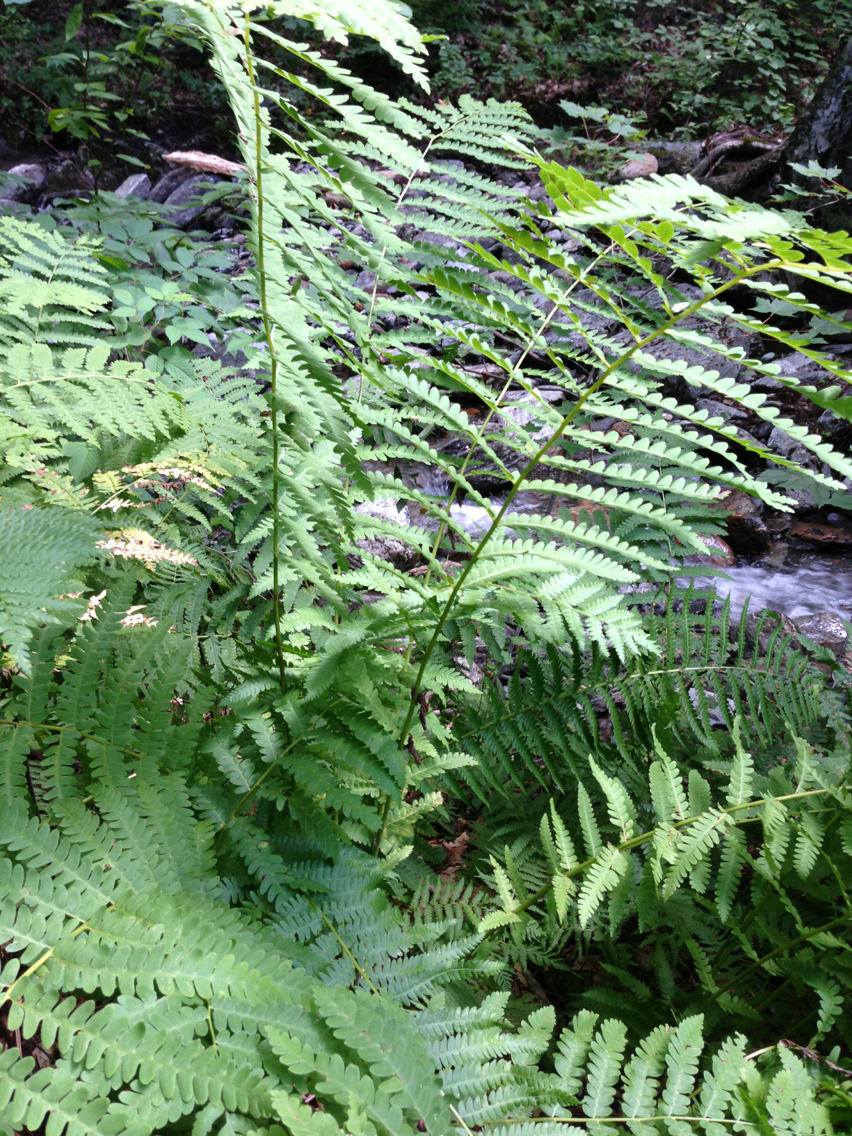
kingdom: Plantae
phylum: Tracheophyta
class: Polypodiopsida
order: Osmundales
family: Osmundaceae
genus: Claytosmunda
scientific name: Claytosmunda claytoniana
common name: Clayton's fern
